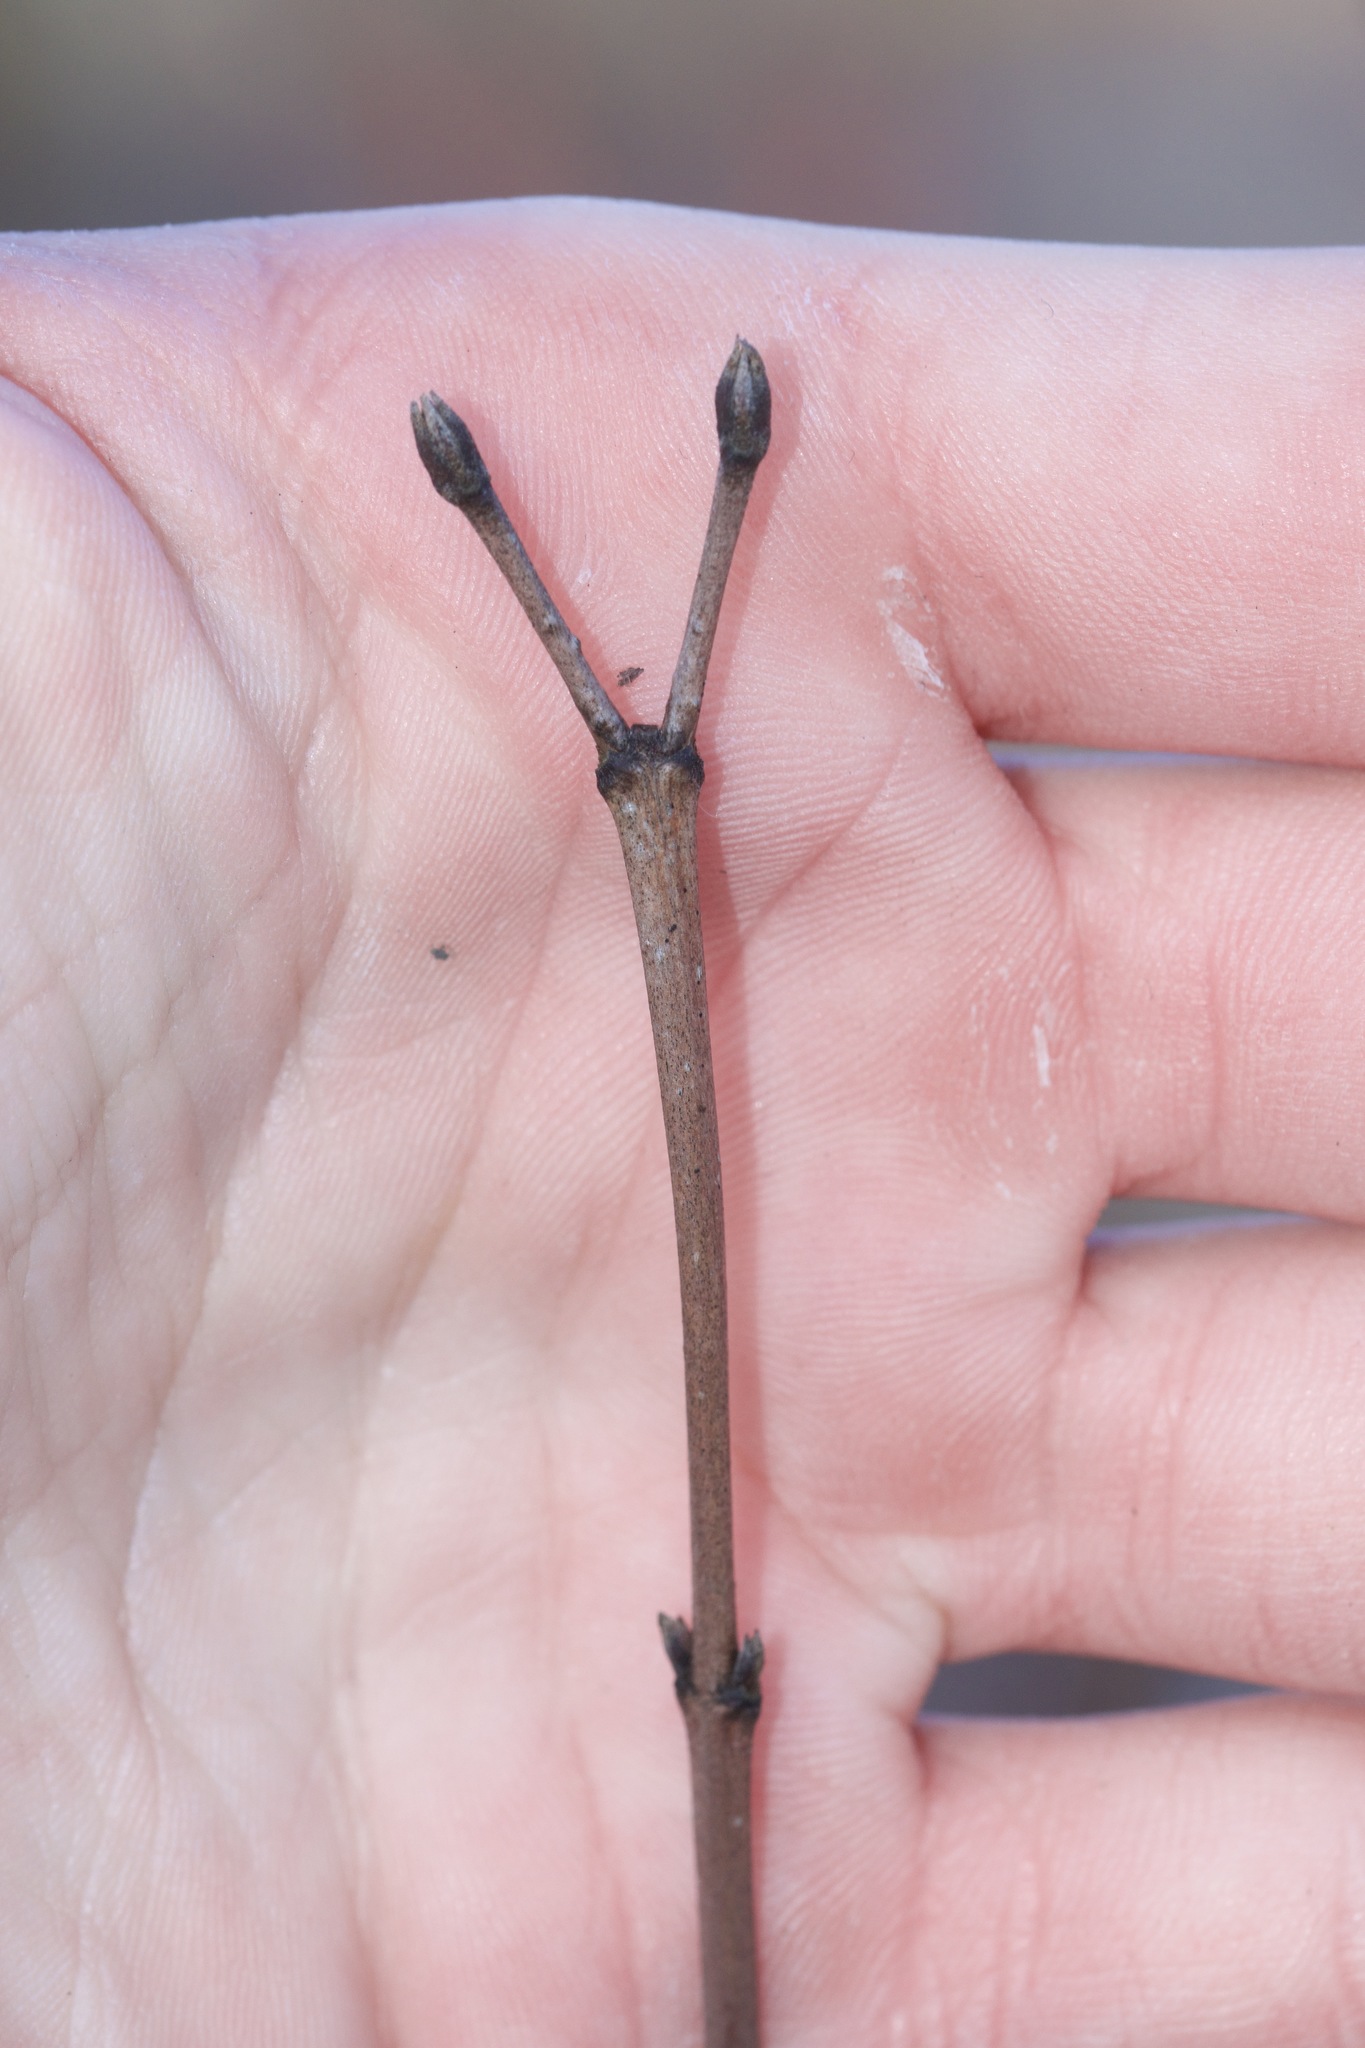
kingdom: Plantae
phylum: Tracheophyta
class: Magnoliopsida
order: Cornales
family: Cornaceae
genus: Cornus
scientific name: Cornus racemosa
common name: Panicled dogwood
